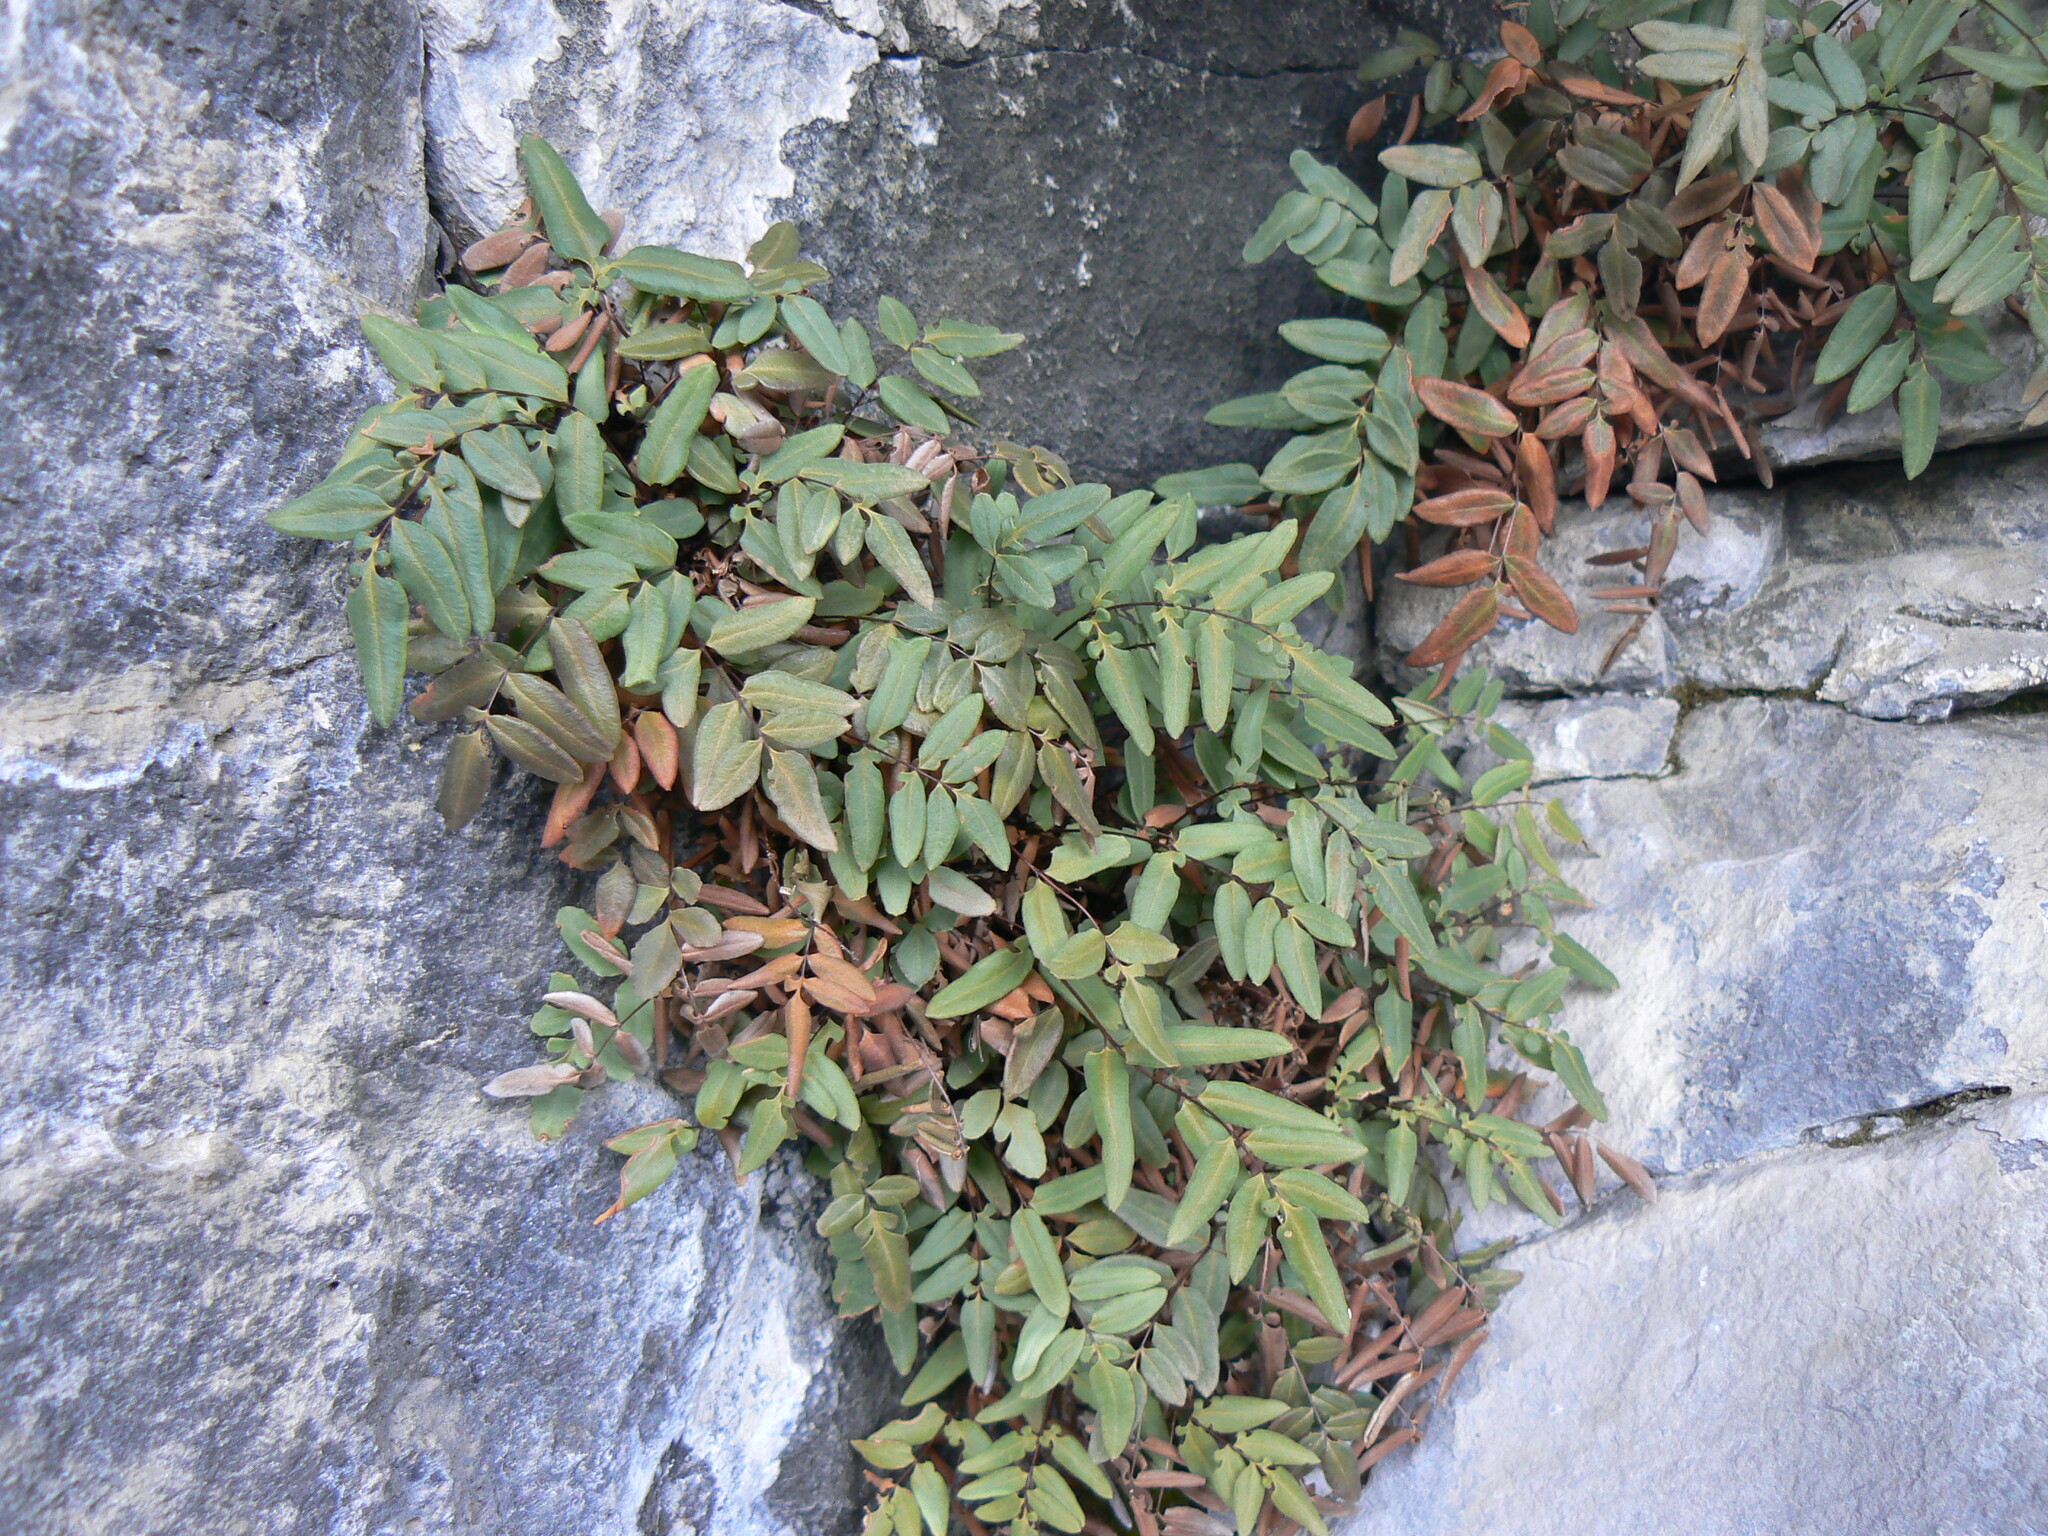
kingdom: Plantae
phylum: Tracheophyta
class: Polypodiopsida
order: Polypodiales
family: Pteridaceae
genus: Pellaea
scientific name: Pellaea glabella
